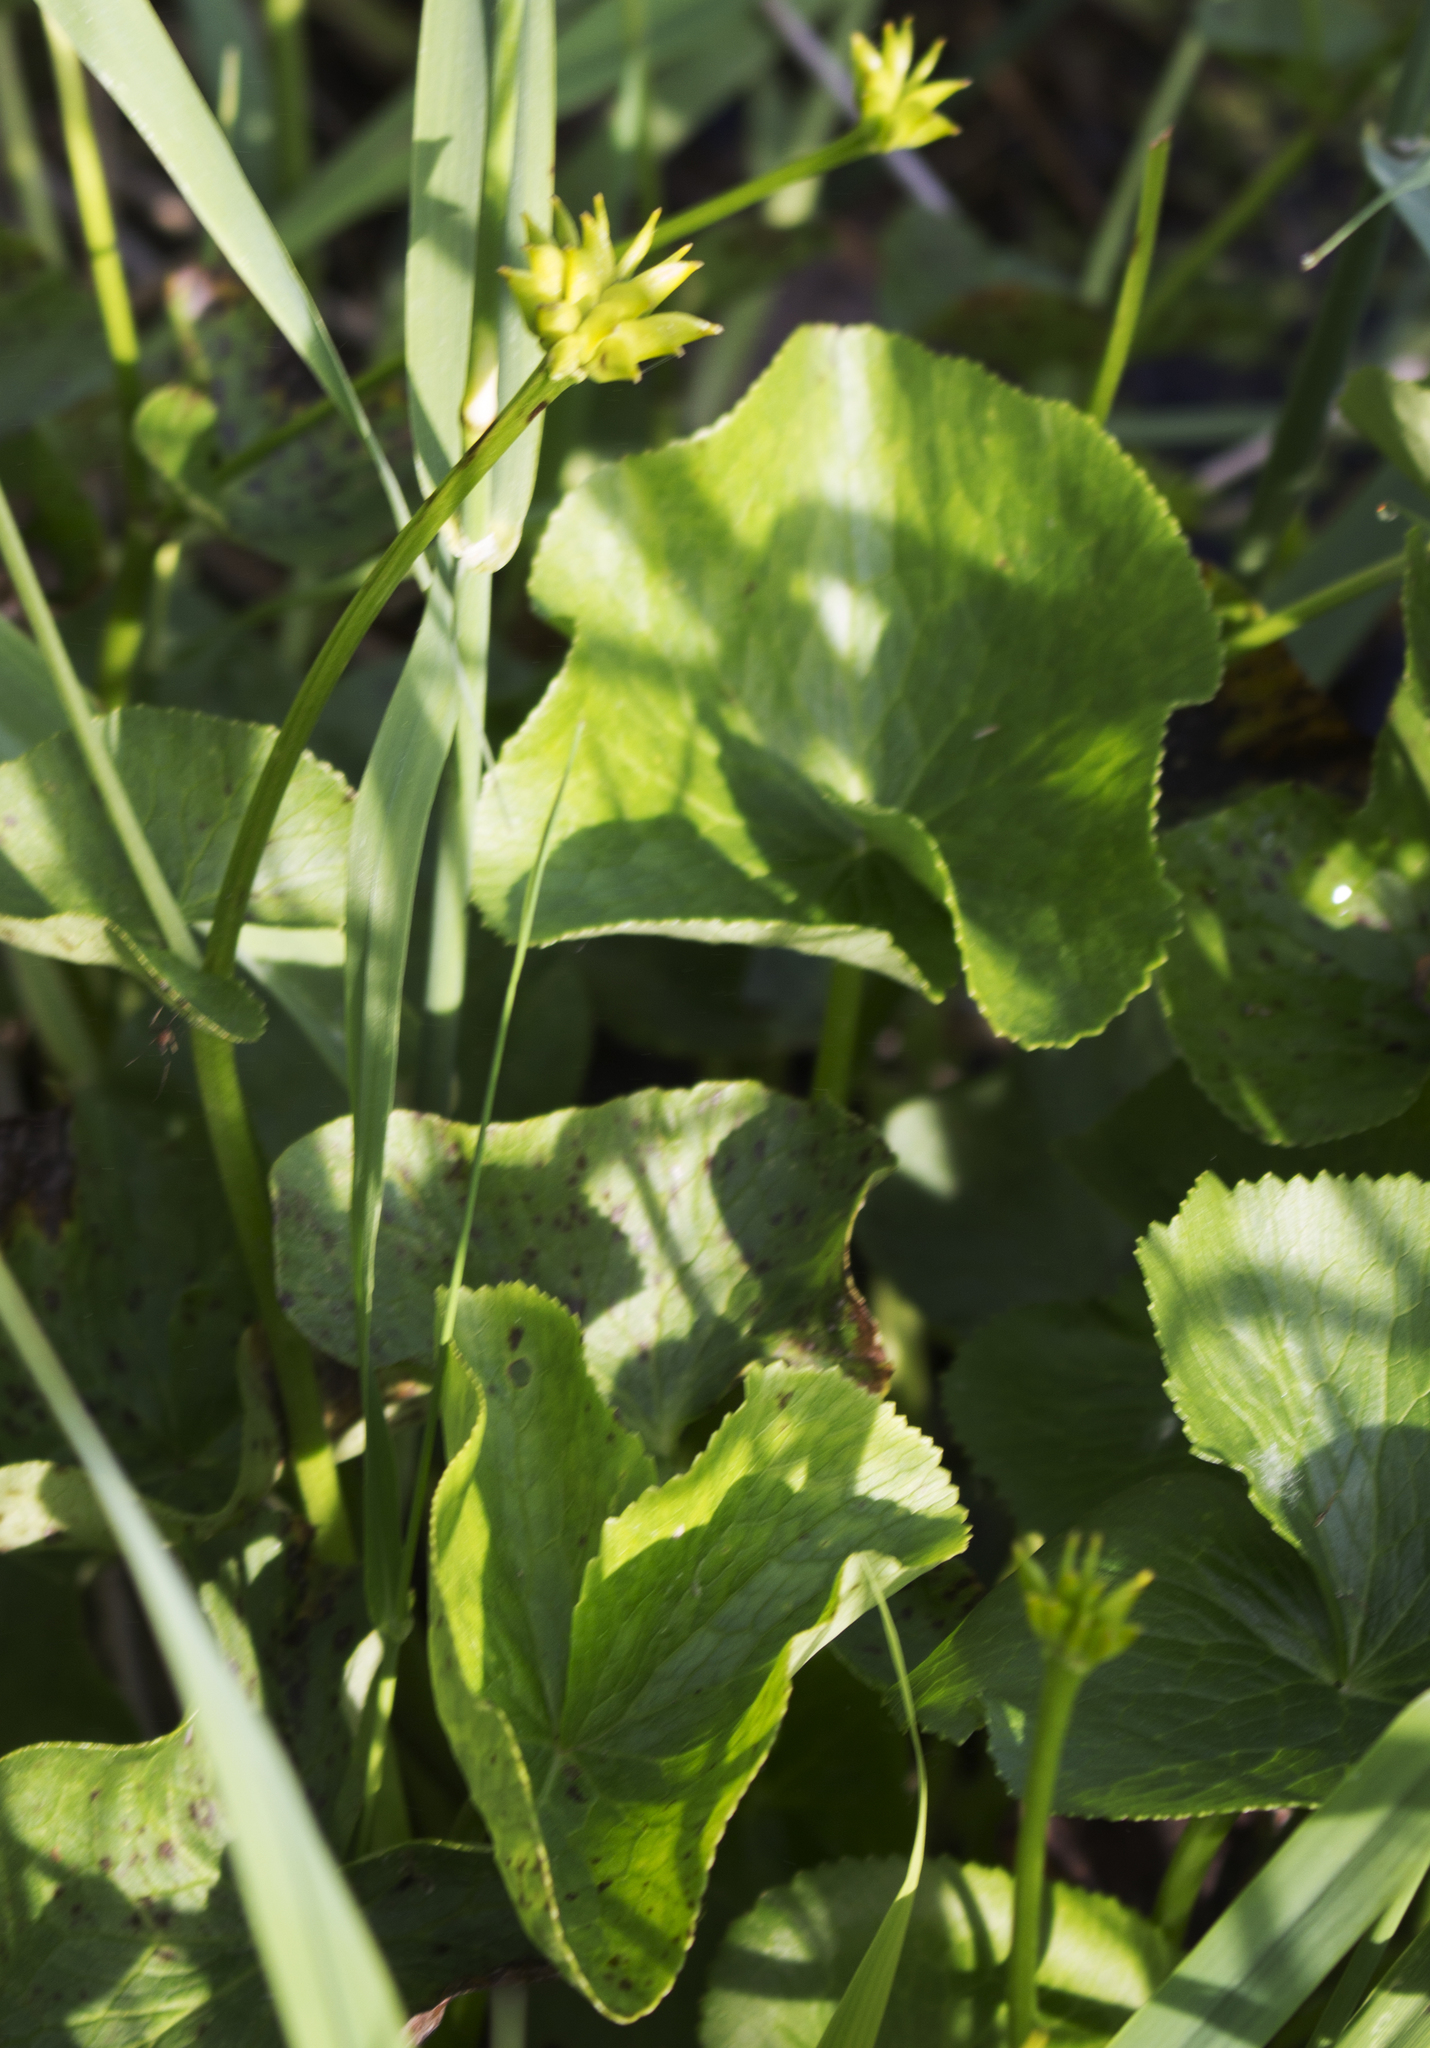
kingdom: Plantae
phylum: Tracheophyta
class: Magnoliopsida
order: Ranunculales
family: Ranunculaceae
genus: Caltha
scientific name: Caltha palustris
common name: Marsh marigold
